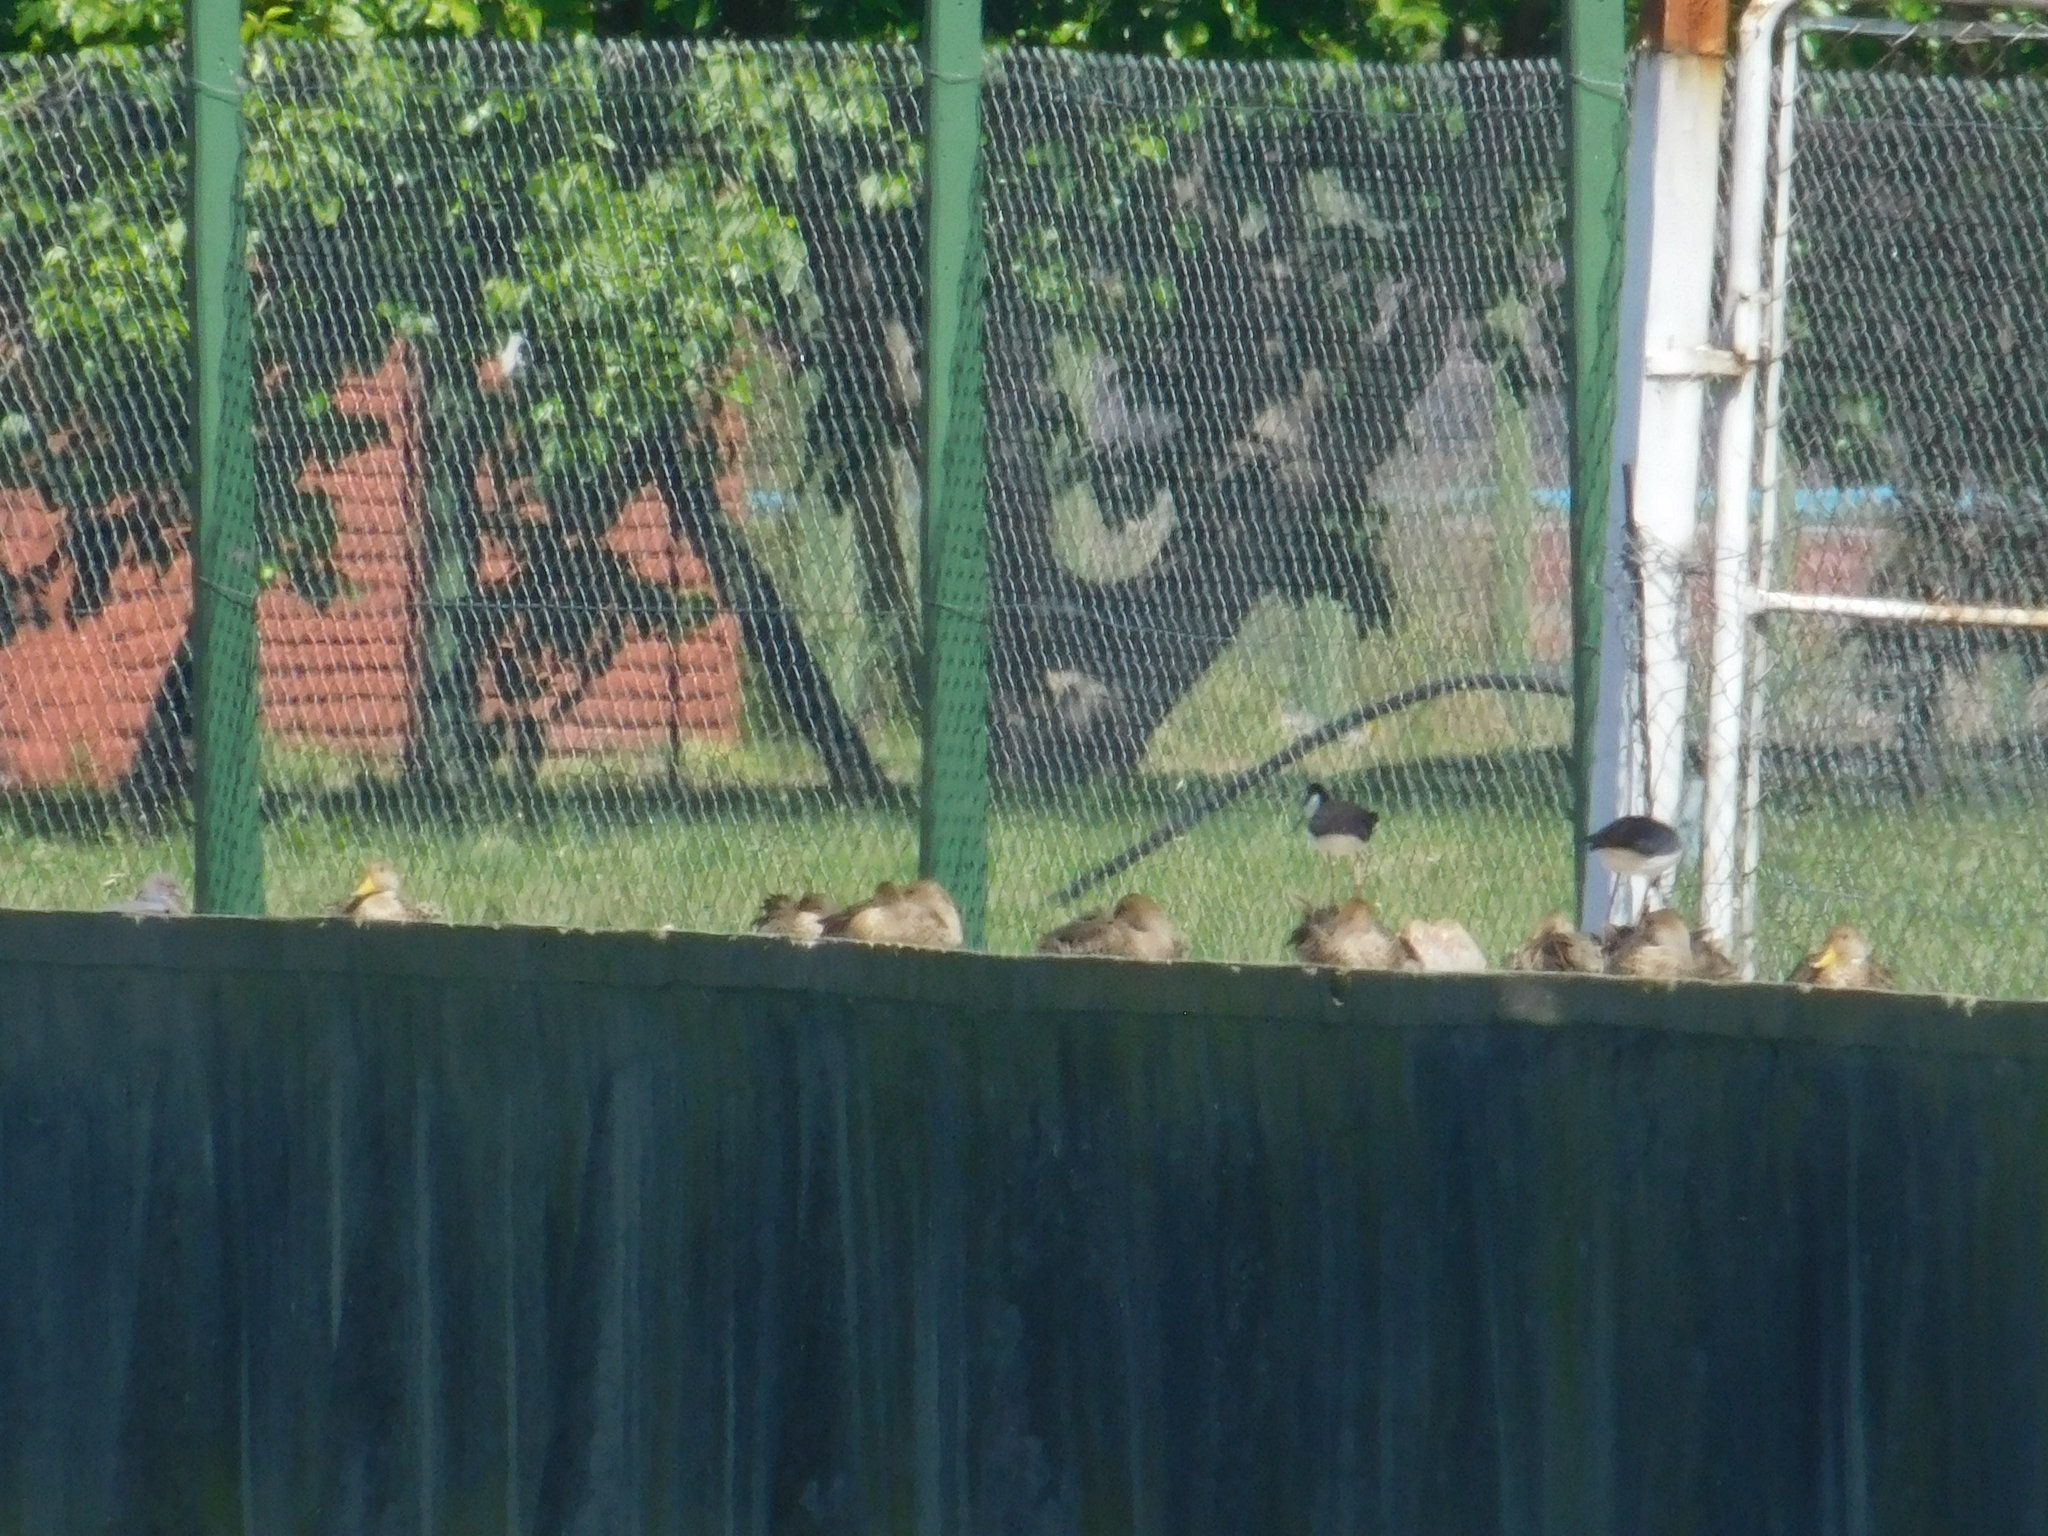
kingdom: Animalia
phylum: Chordata
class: Aves
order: Anseriformes
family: Anatidae
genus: Anas
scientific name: Anas georgica
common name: Yellow-billed pintail
